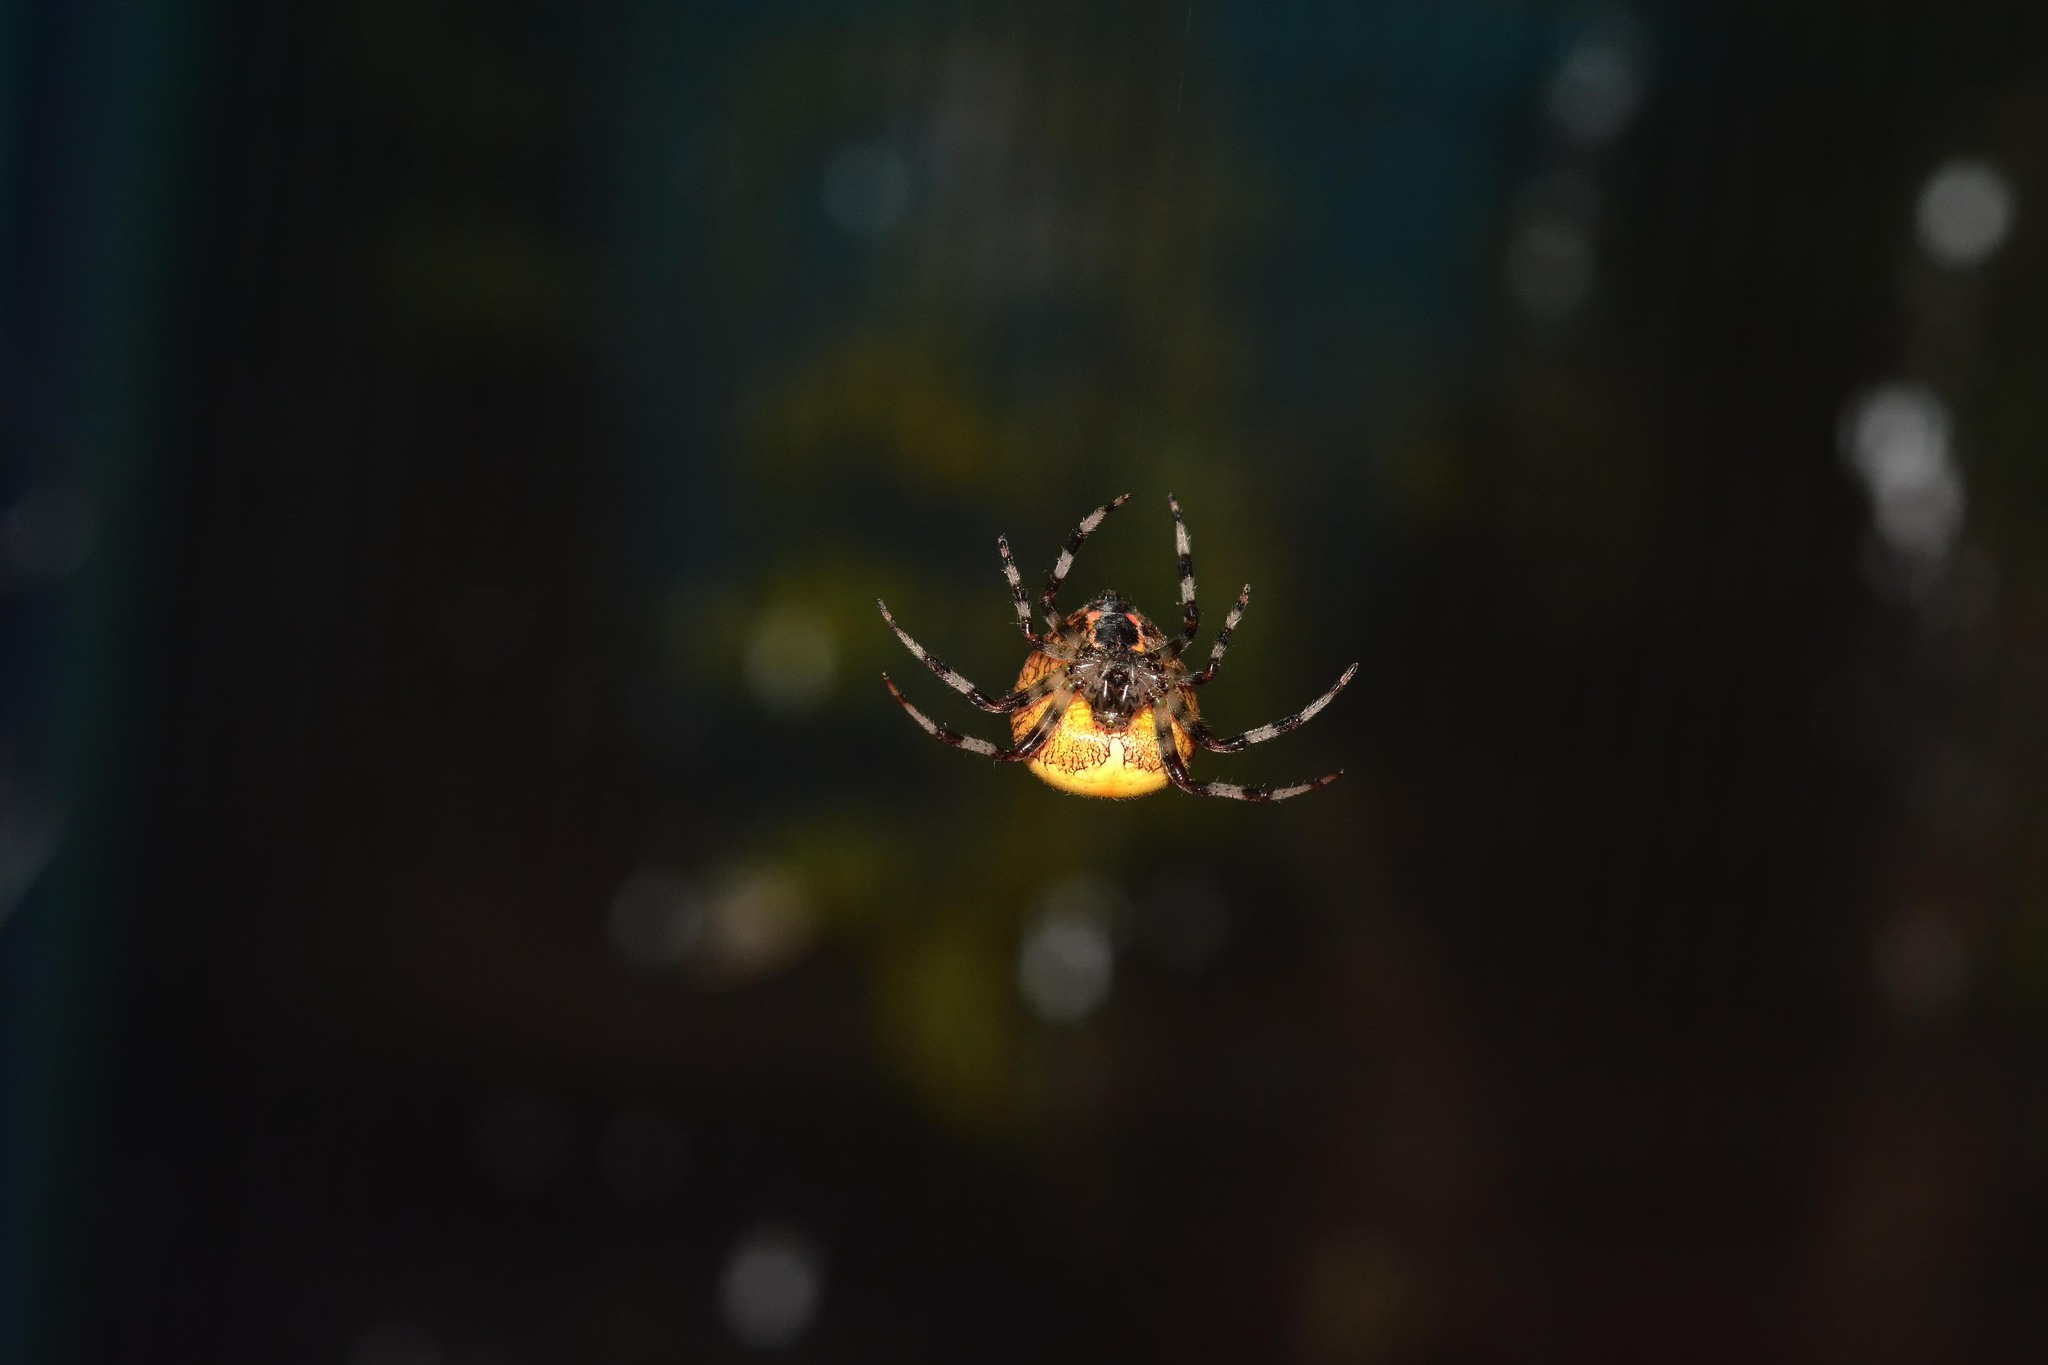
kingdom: Animalia
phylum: Arthropoda
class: Arachnida
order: Araneae
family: Araneidae
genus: Araneus
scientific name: Araneus marmoreus
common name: Marbled orbweaver
